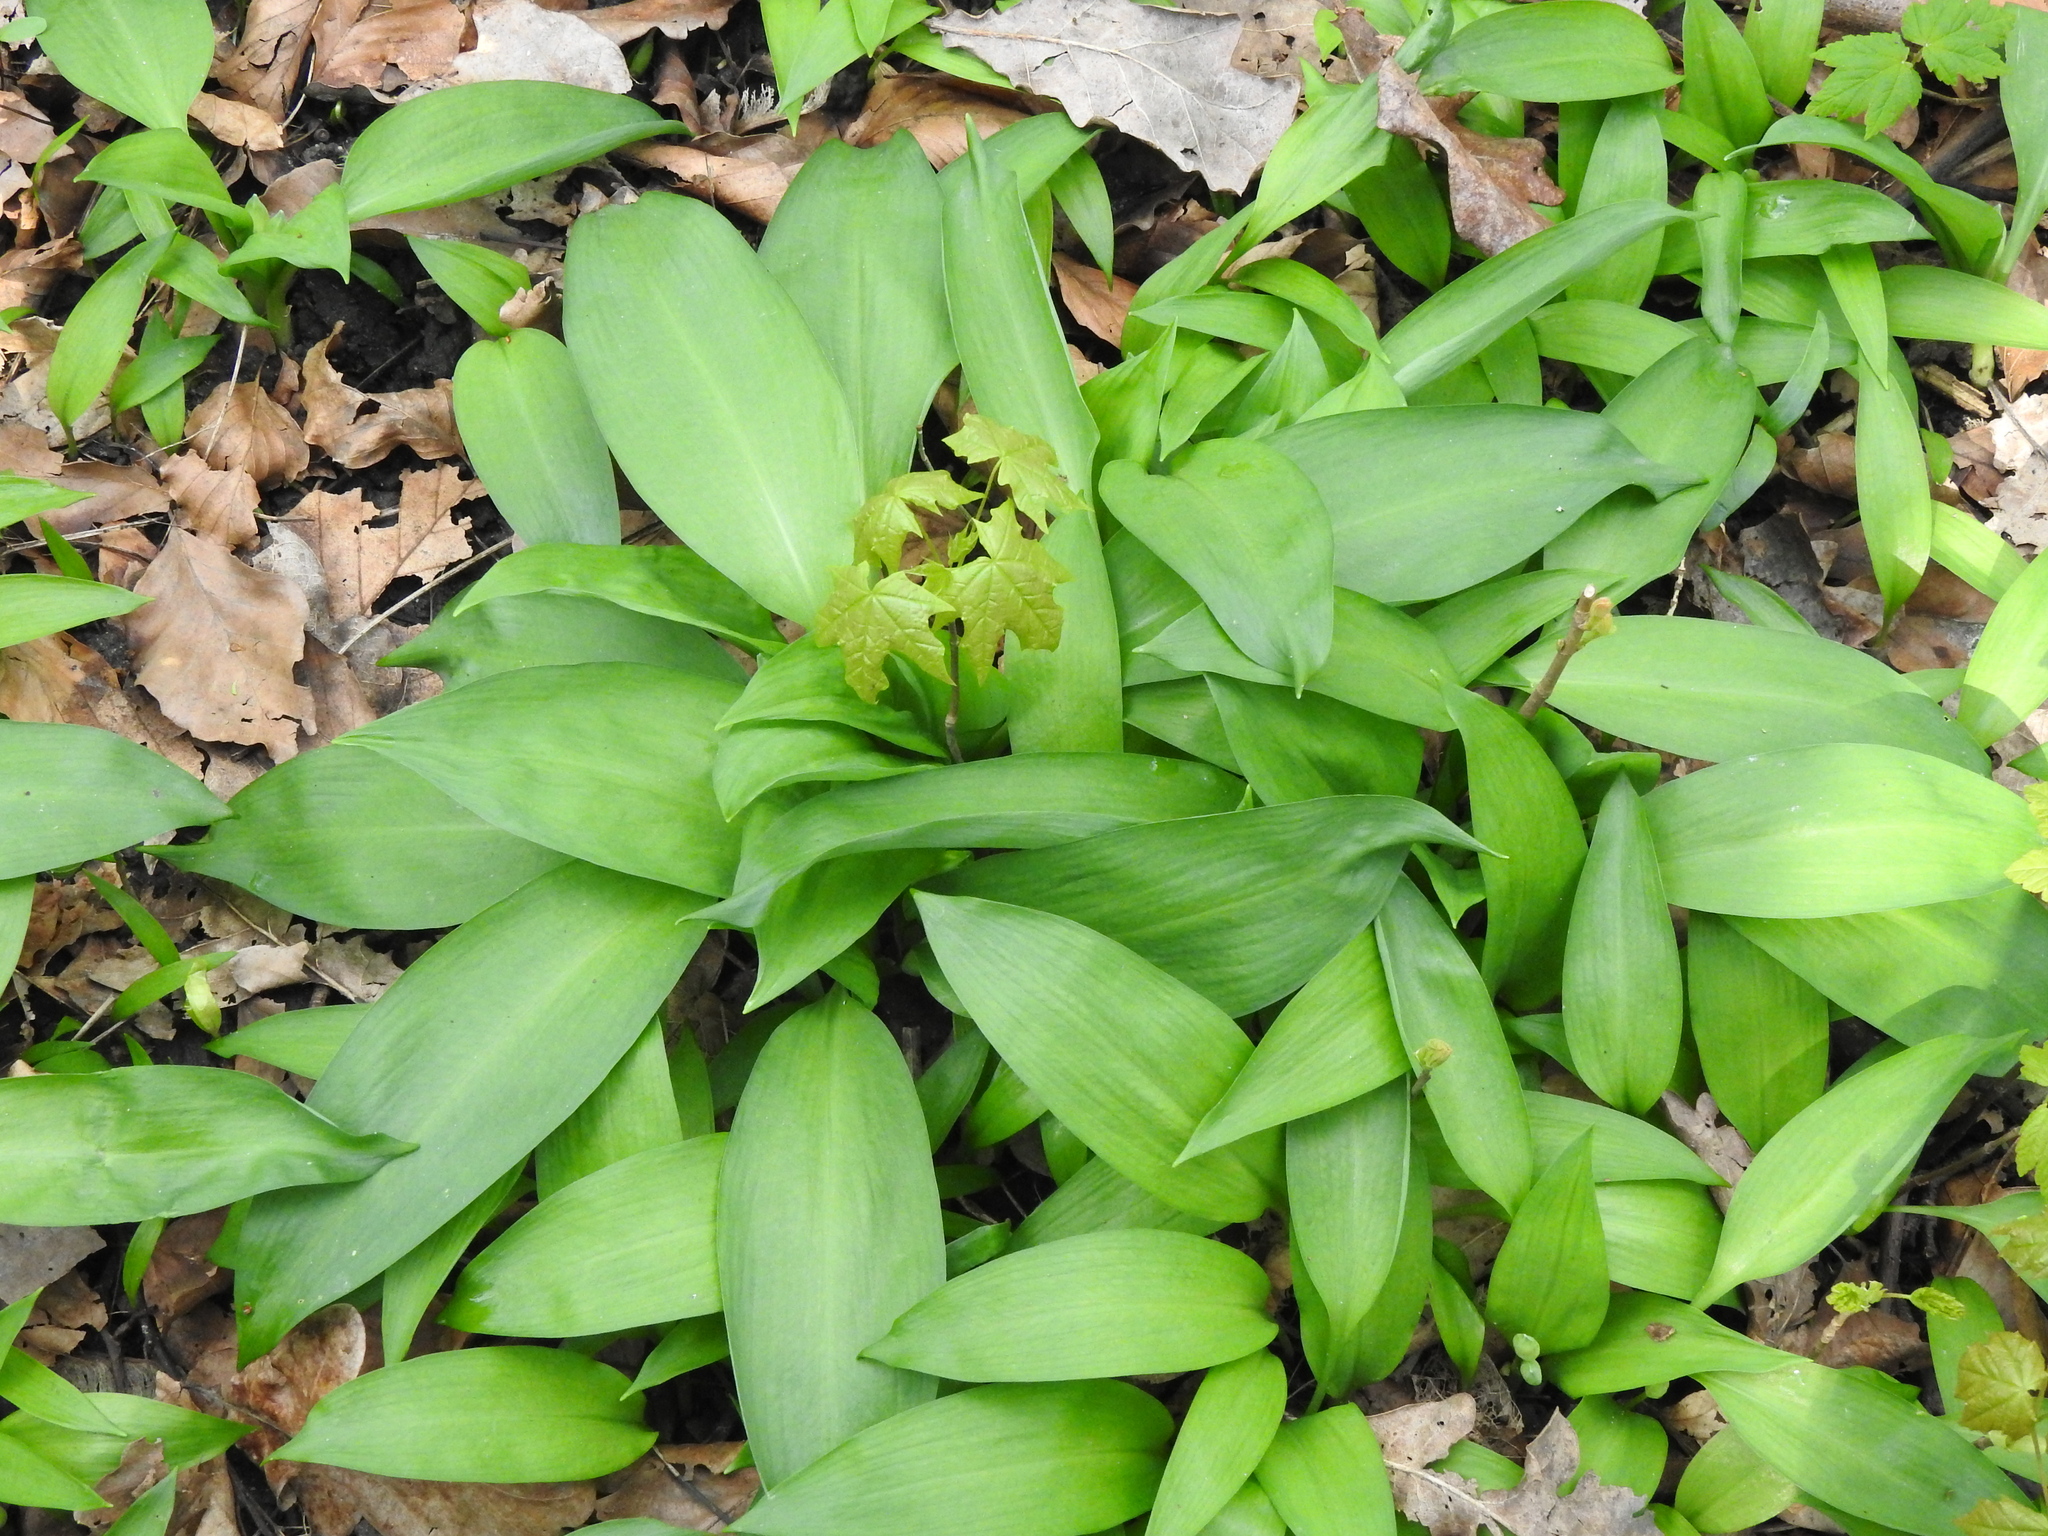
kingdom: Plantae
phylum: Tracheophyta
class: Liliopsida
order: Asparagales
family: Amaryllidaceae
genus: Allium
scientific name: Allium ursinum
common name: Ramsons
